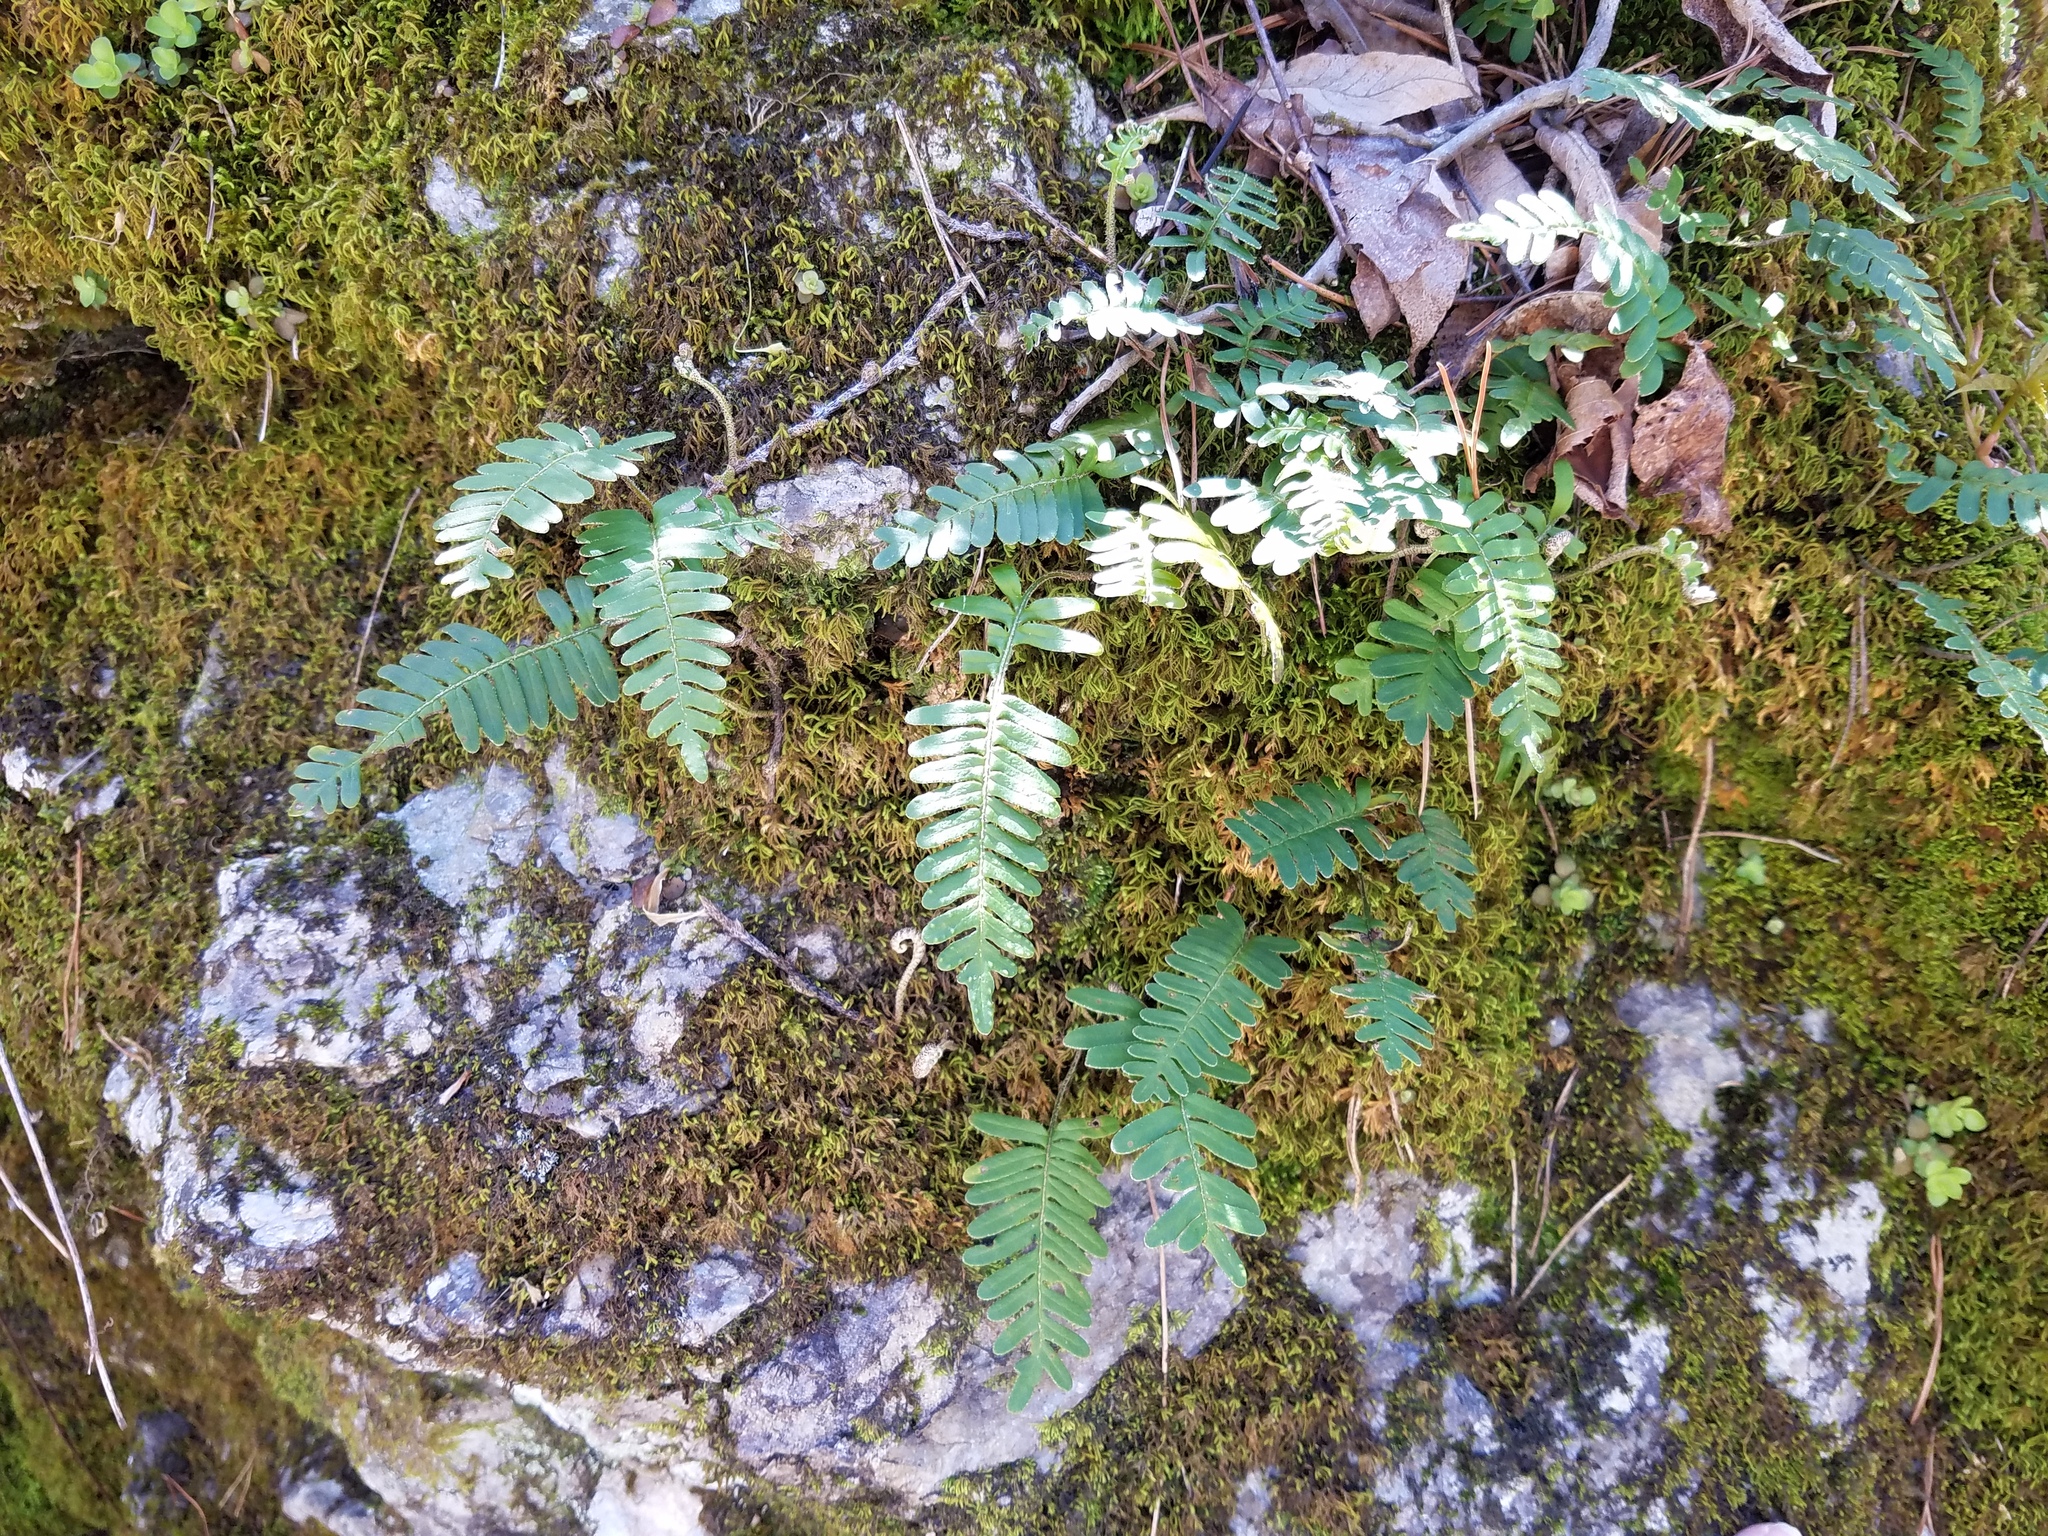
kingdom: Plantae
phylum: Tracheophyta
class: Polypodiopsida
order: Polypodiales
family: Polypodiaceae
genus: Pleopeltis
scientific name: Pleopeltis michauxiana
